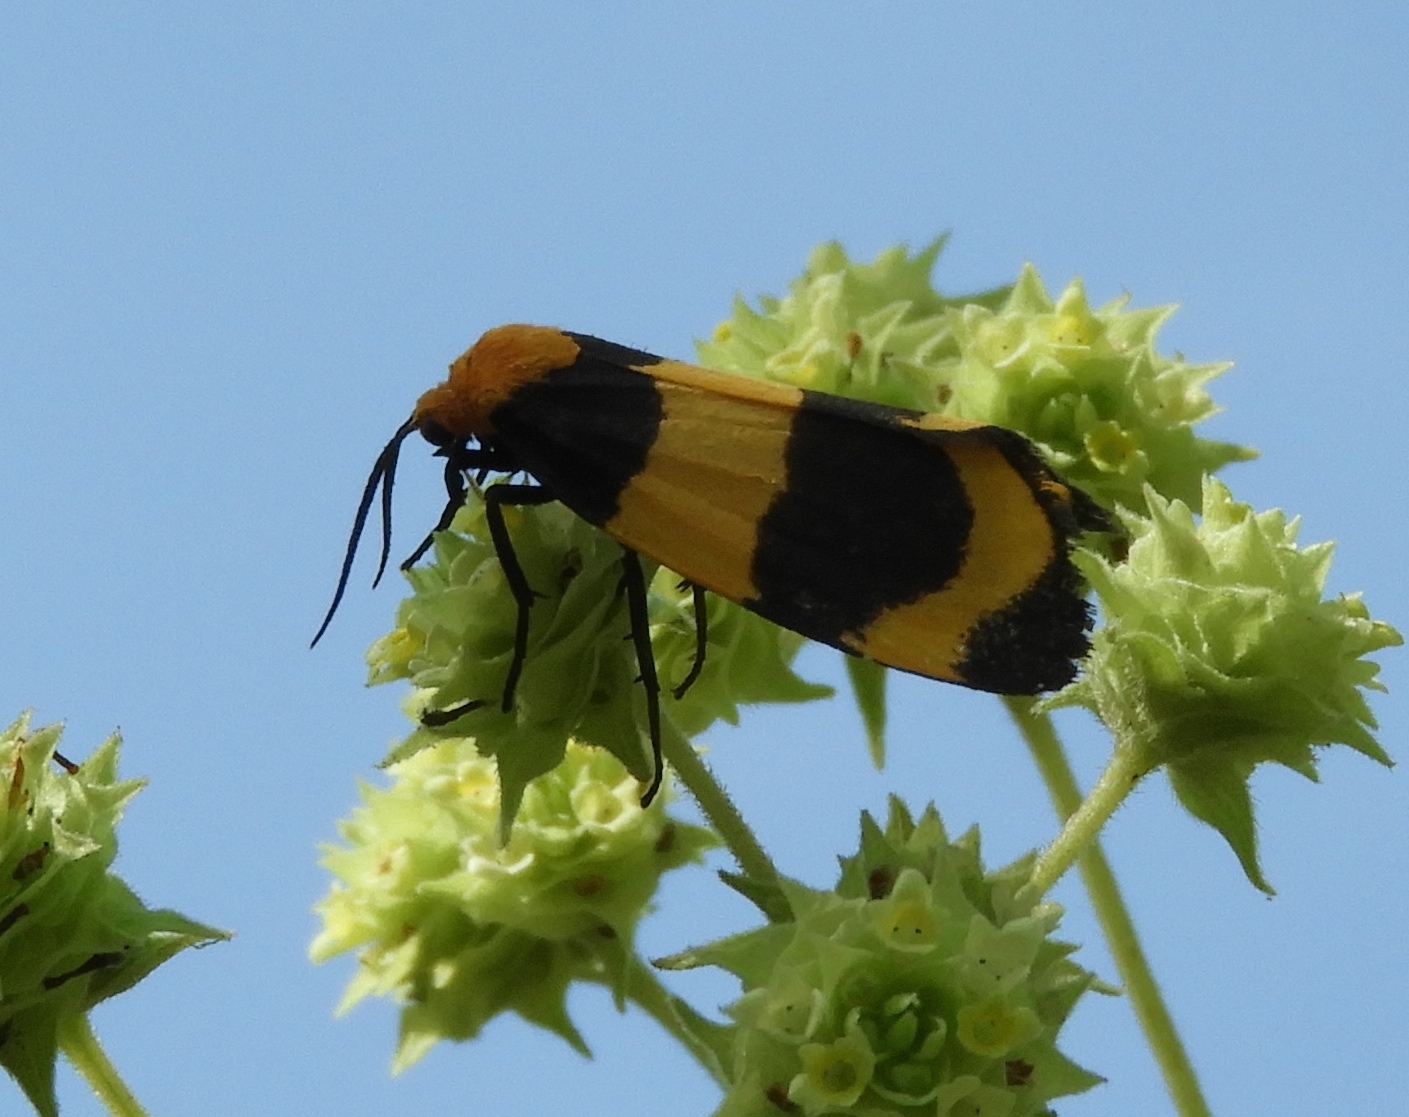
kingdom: Animalia
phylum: Arthropoda
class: Insecta
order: Lepidoptera
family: Erebidae
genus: Eudesmia
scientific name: Eudesmia menea
